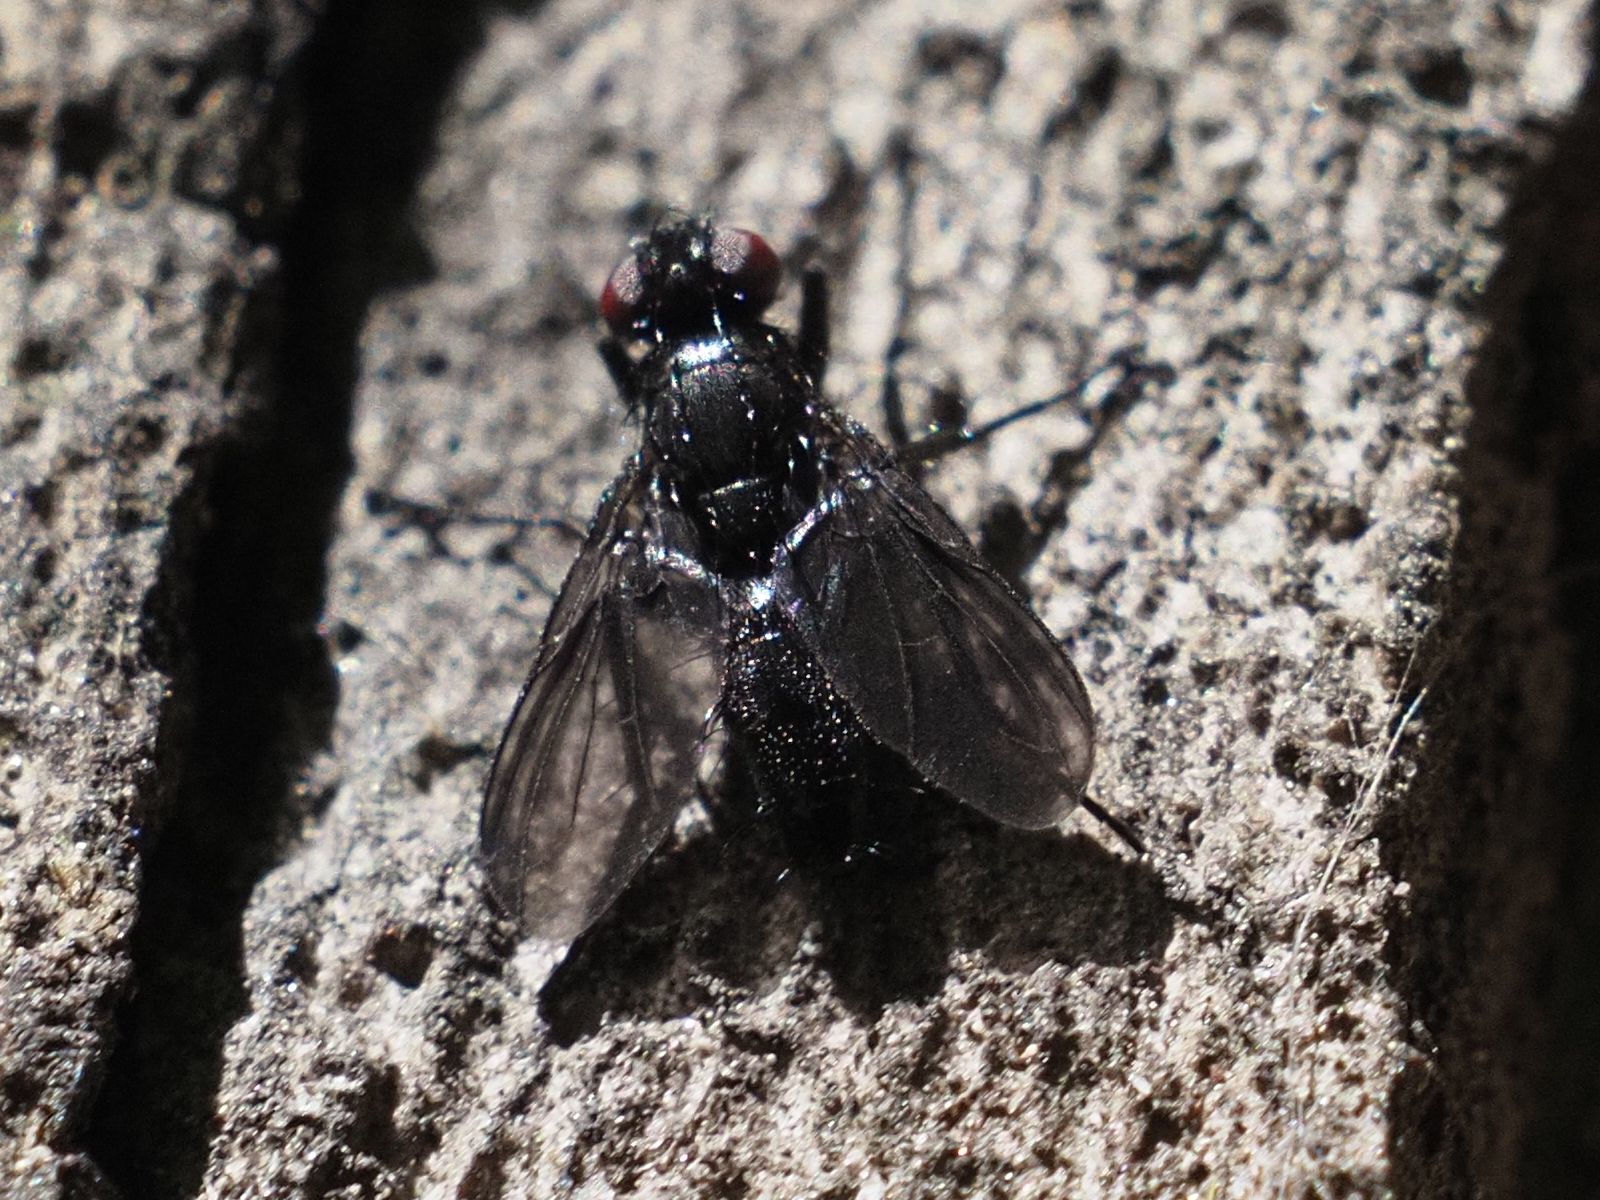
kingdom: Animalia
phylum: Arthropoda
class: Insecta
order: Diptera
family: Calliphoridae
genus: Melanophora
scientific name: Melanophora roralis
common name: Smoky-winged woodlouse-fly
